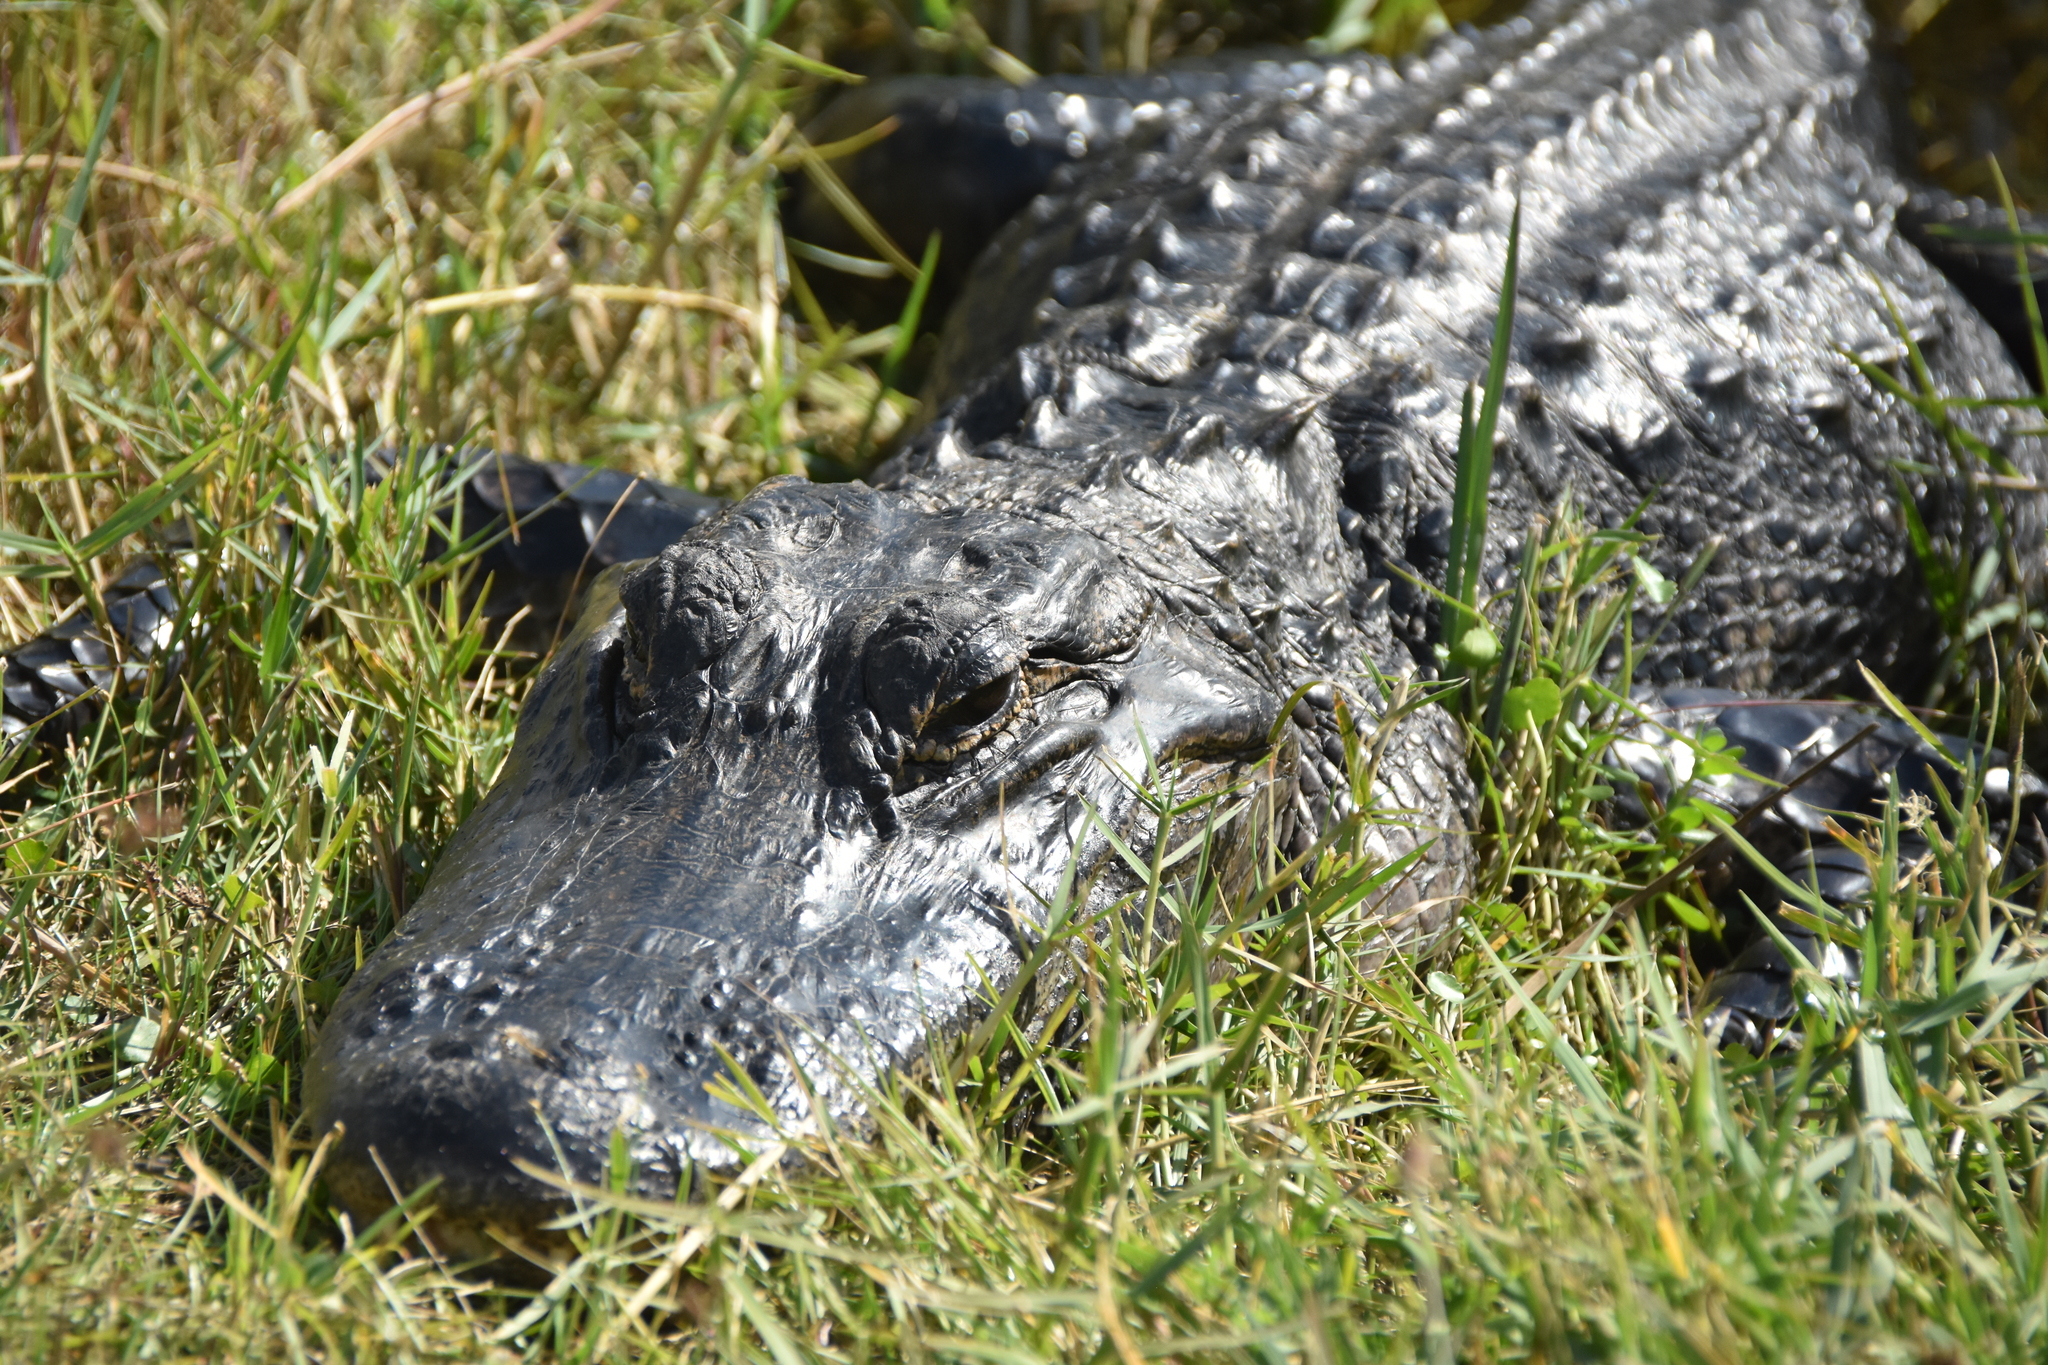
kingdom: Animalia
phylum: Chordata
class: Crocodylia
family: Alligatoridae
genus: Alligator
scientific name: Alligator mississippiensis
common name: American alligator
